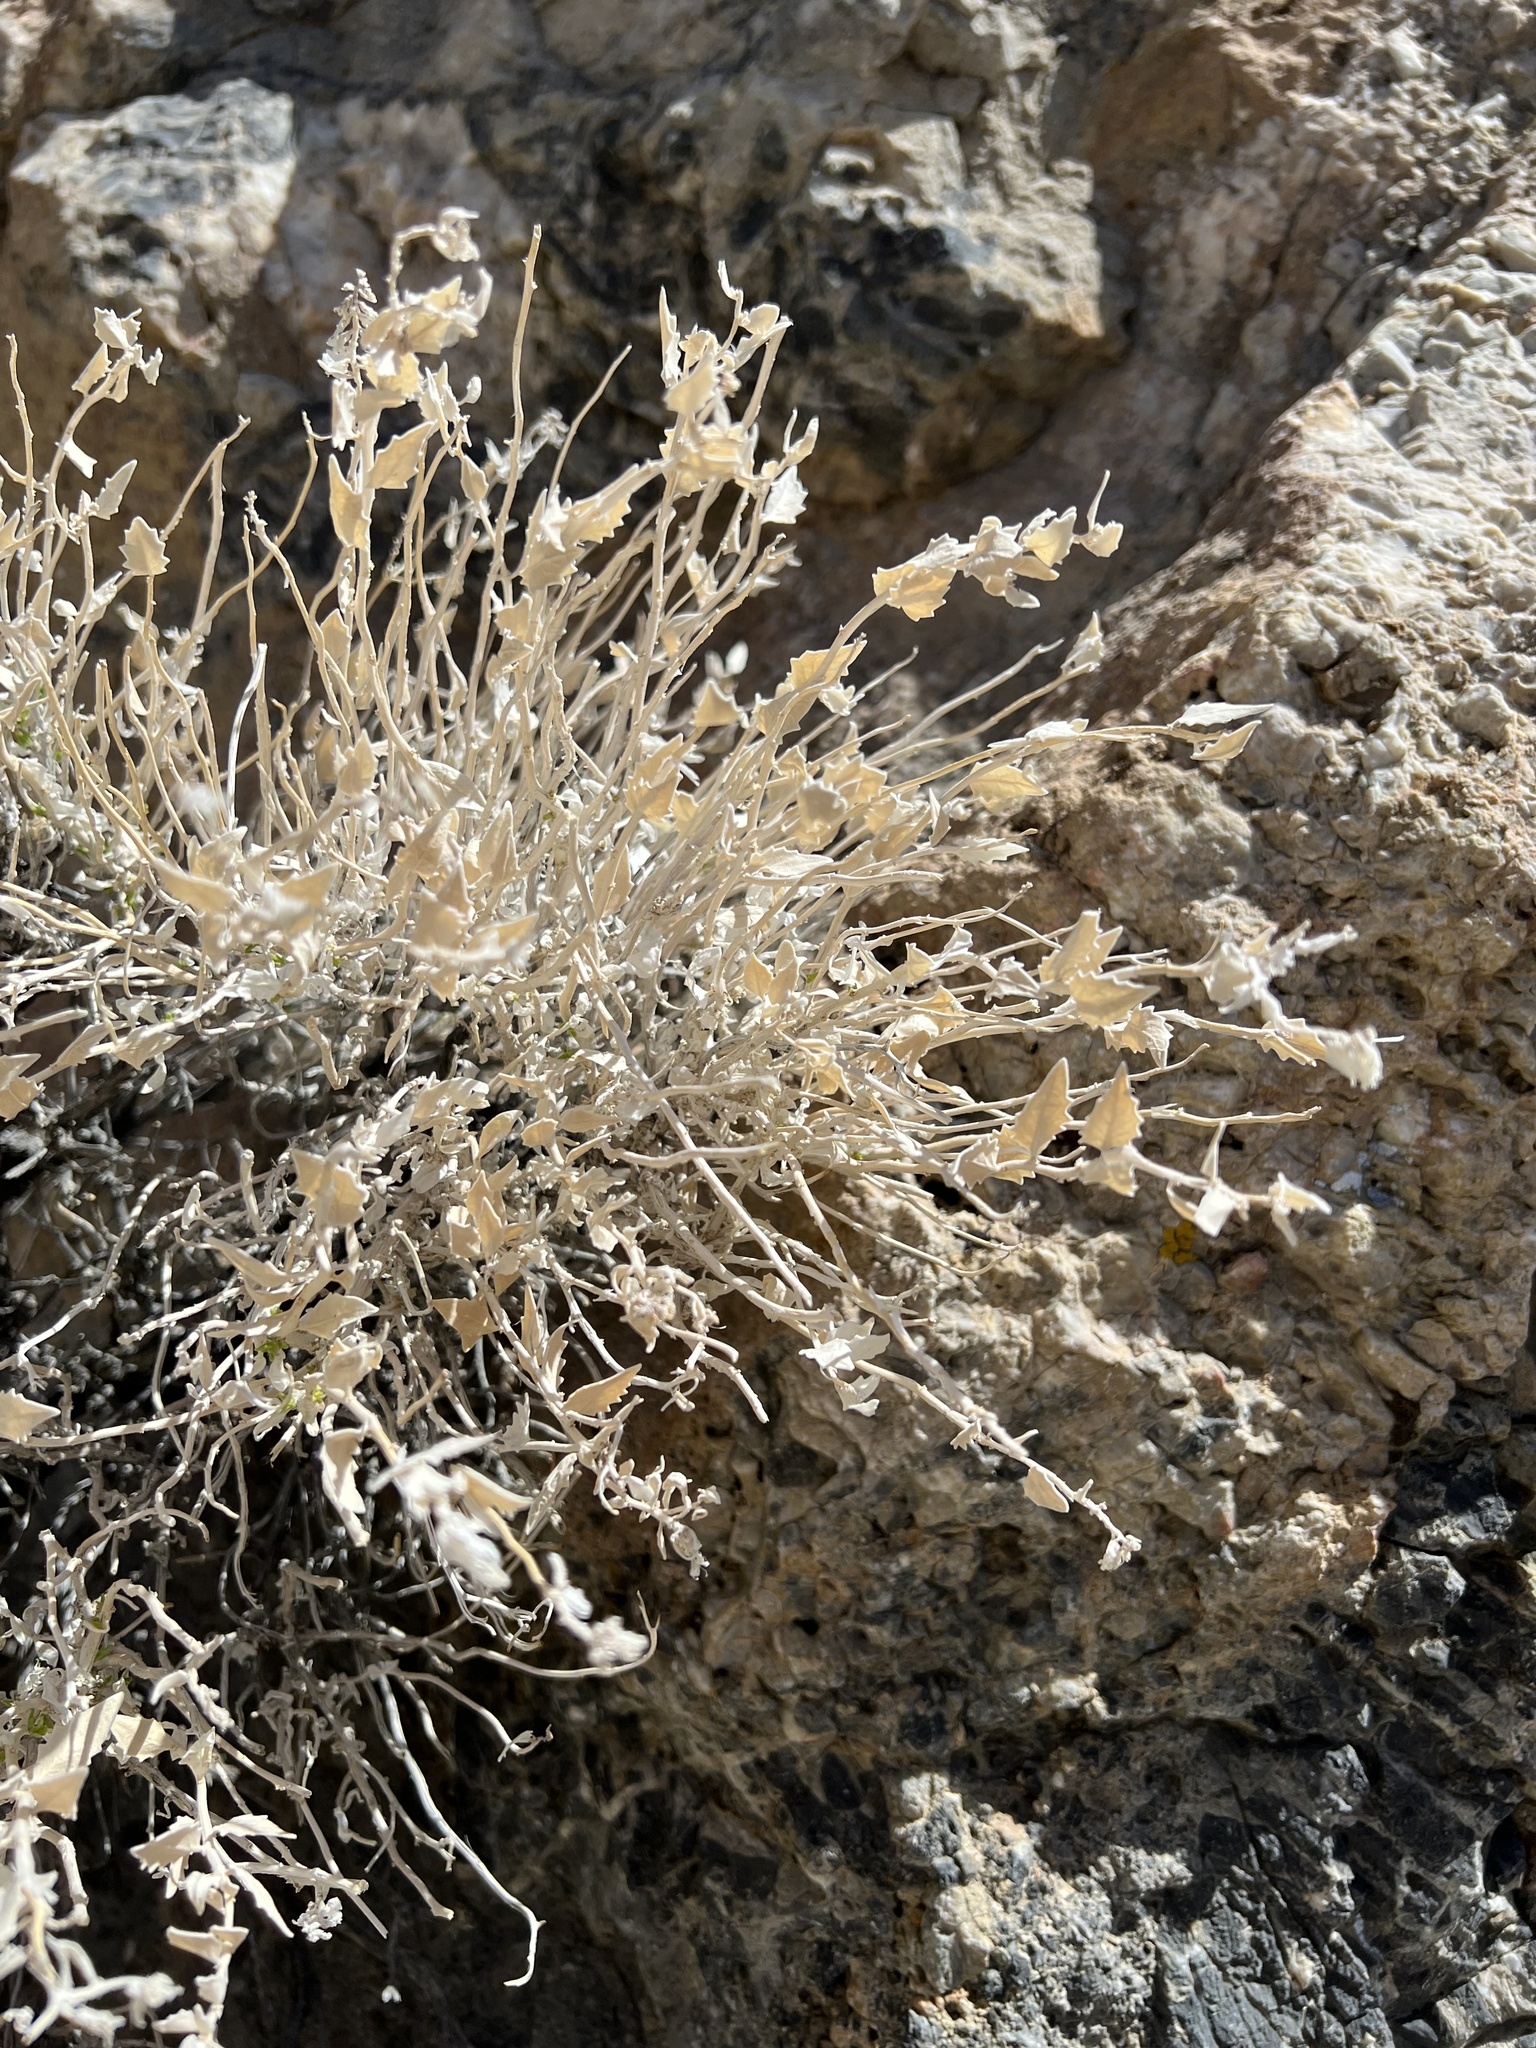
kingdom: Plantae
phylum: Tracheophyta
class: Magnoliopsida
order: Cornales
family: Loasaceae
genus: Petalonyx
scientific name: Petalonyx nitidus
